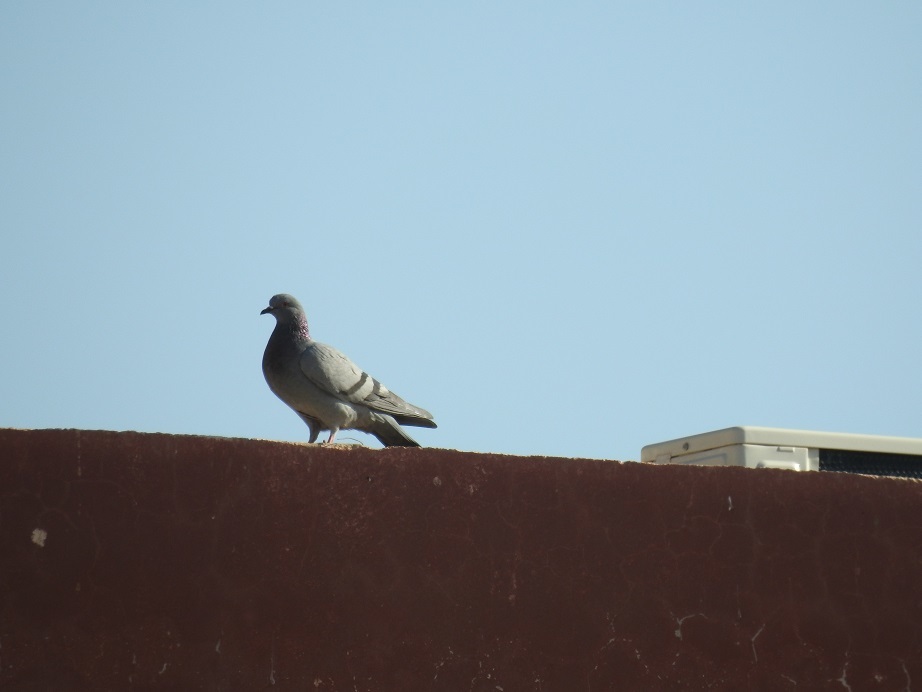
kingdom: Animalia
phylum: Chordata
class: Aves
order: Columbiformes
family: Columbidae
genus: Columba
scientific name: Columba livia
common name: Rock pigeon
